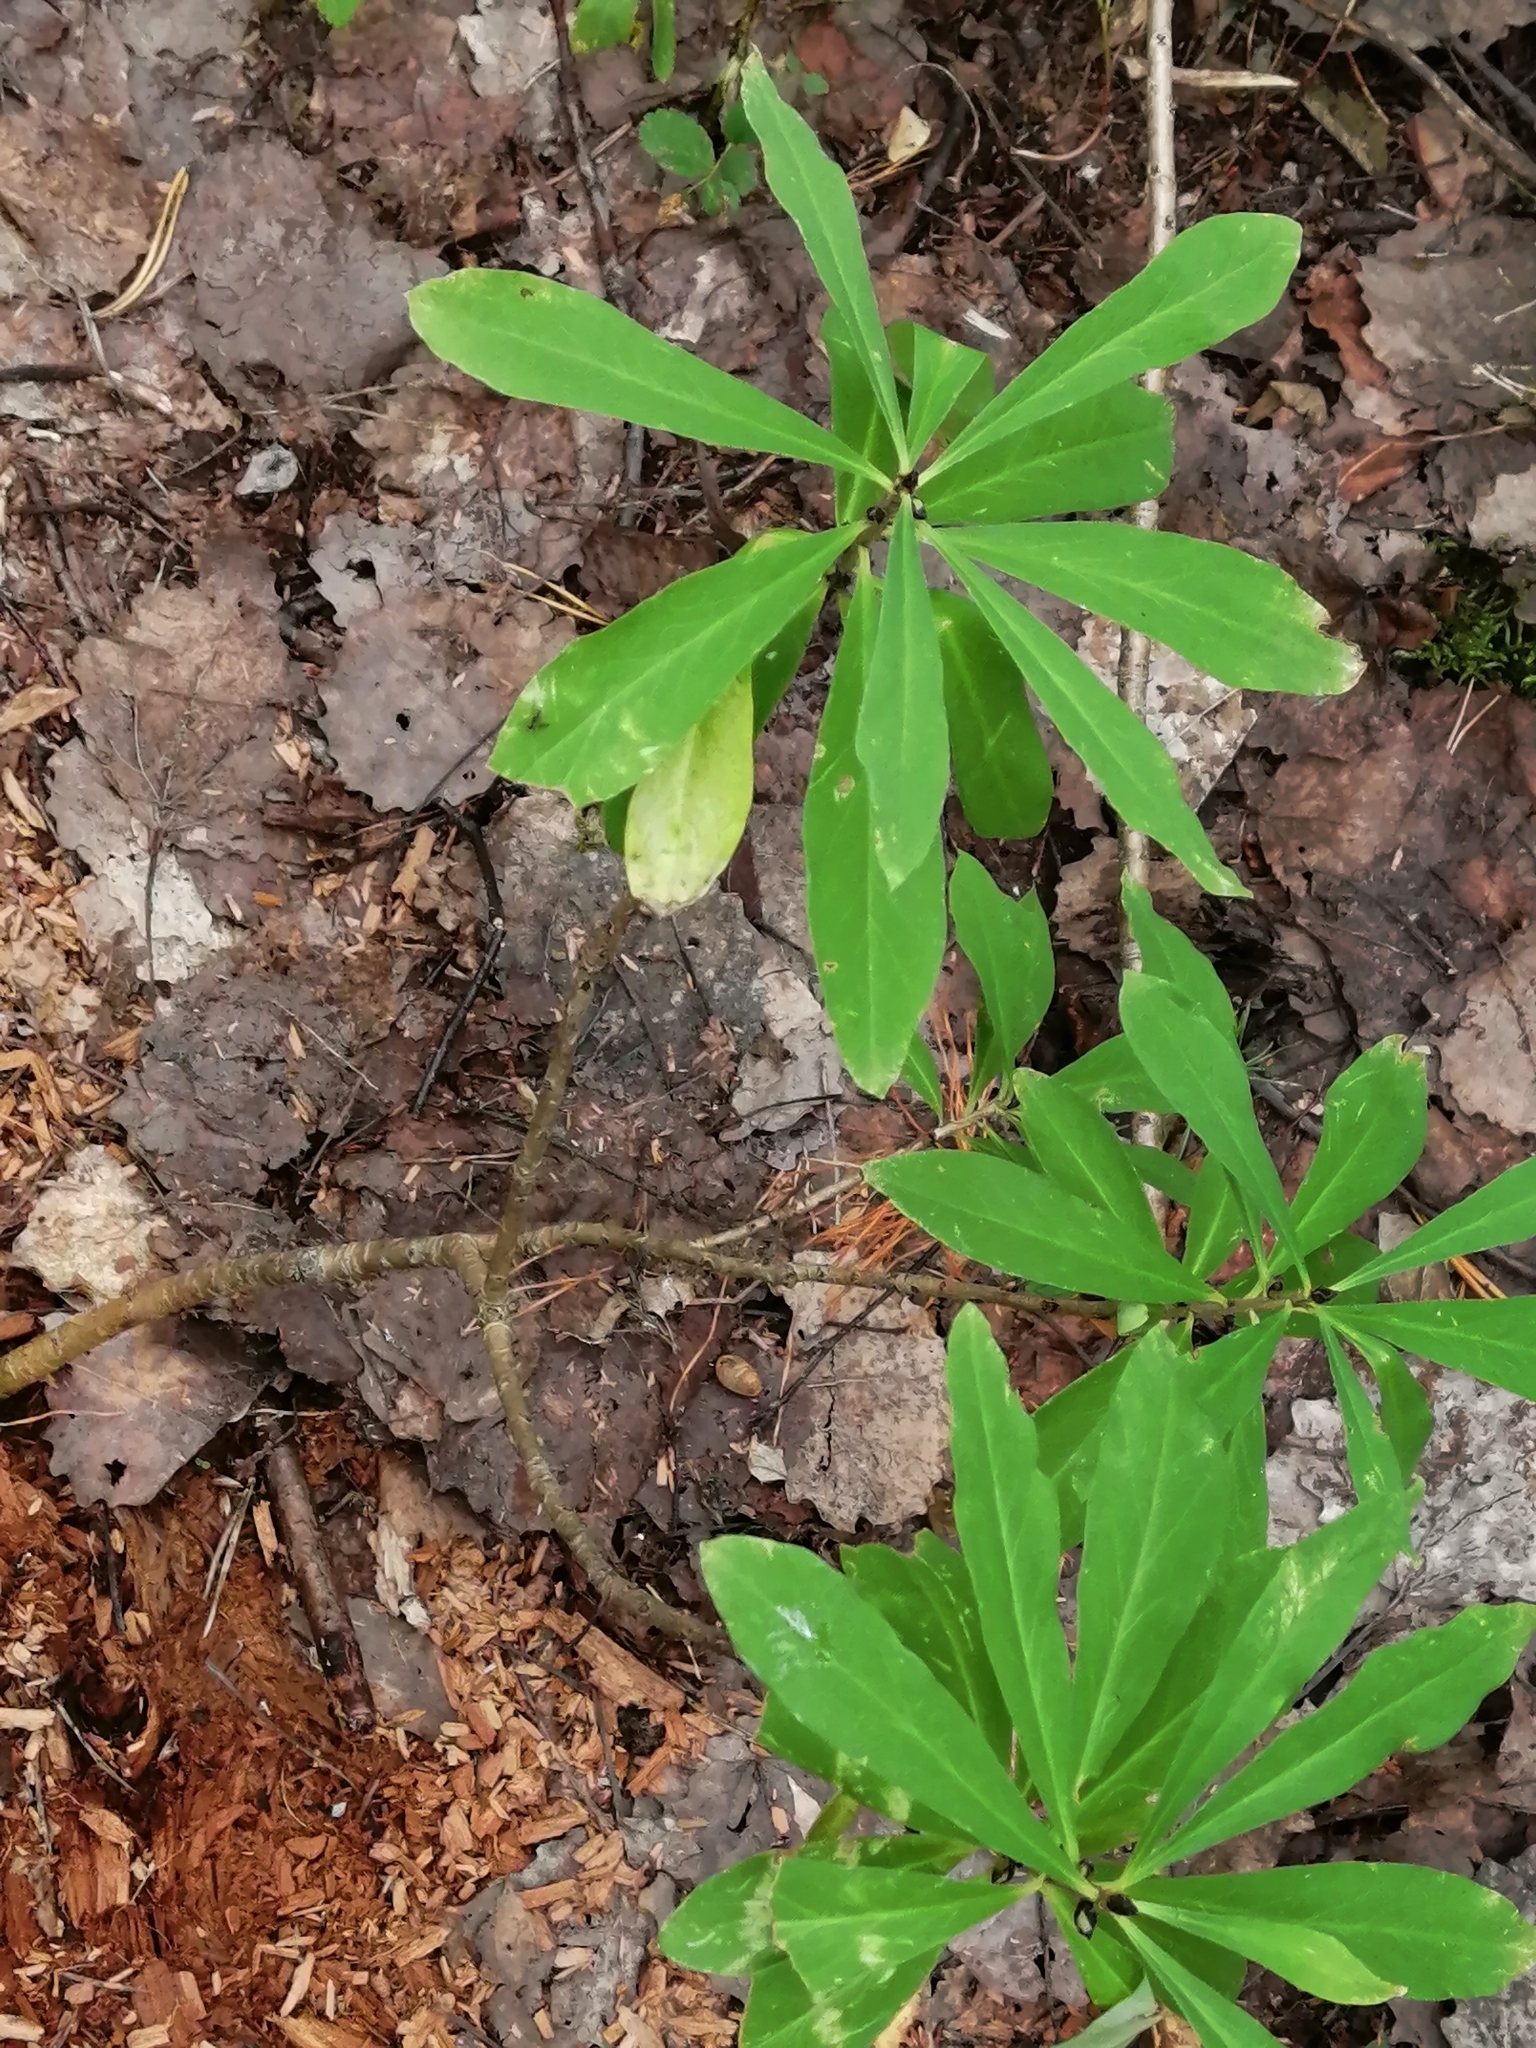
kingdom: Plantae
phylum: Tracheophyta
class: Magnoliopsida
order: Malvales
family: Thymelaeaceae
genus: Daphne
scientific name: Daphne mezereum
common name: Mezereon
